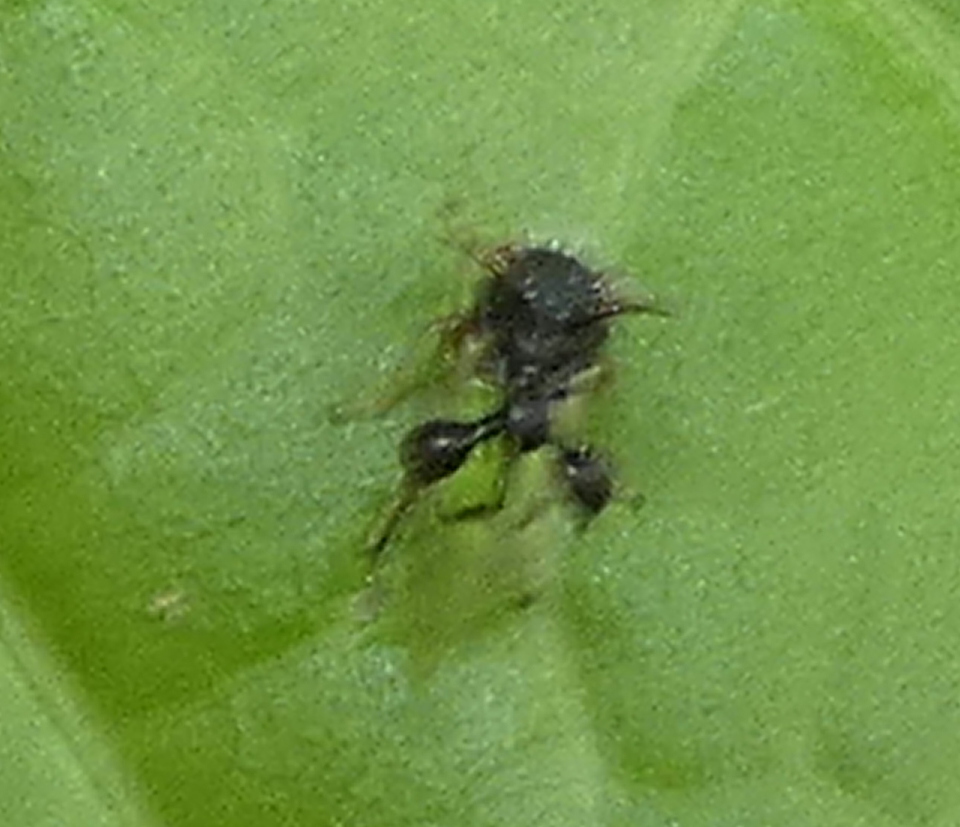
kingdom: Animalia
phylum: Arthropoda
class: Insecta
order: Hemiptera
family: Membracidae
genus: Cyphonia
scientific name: Cyphonia clavata
